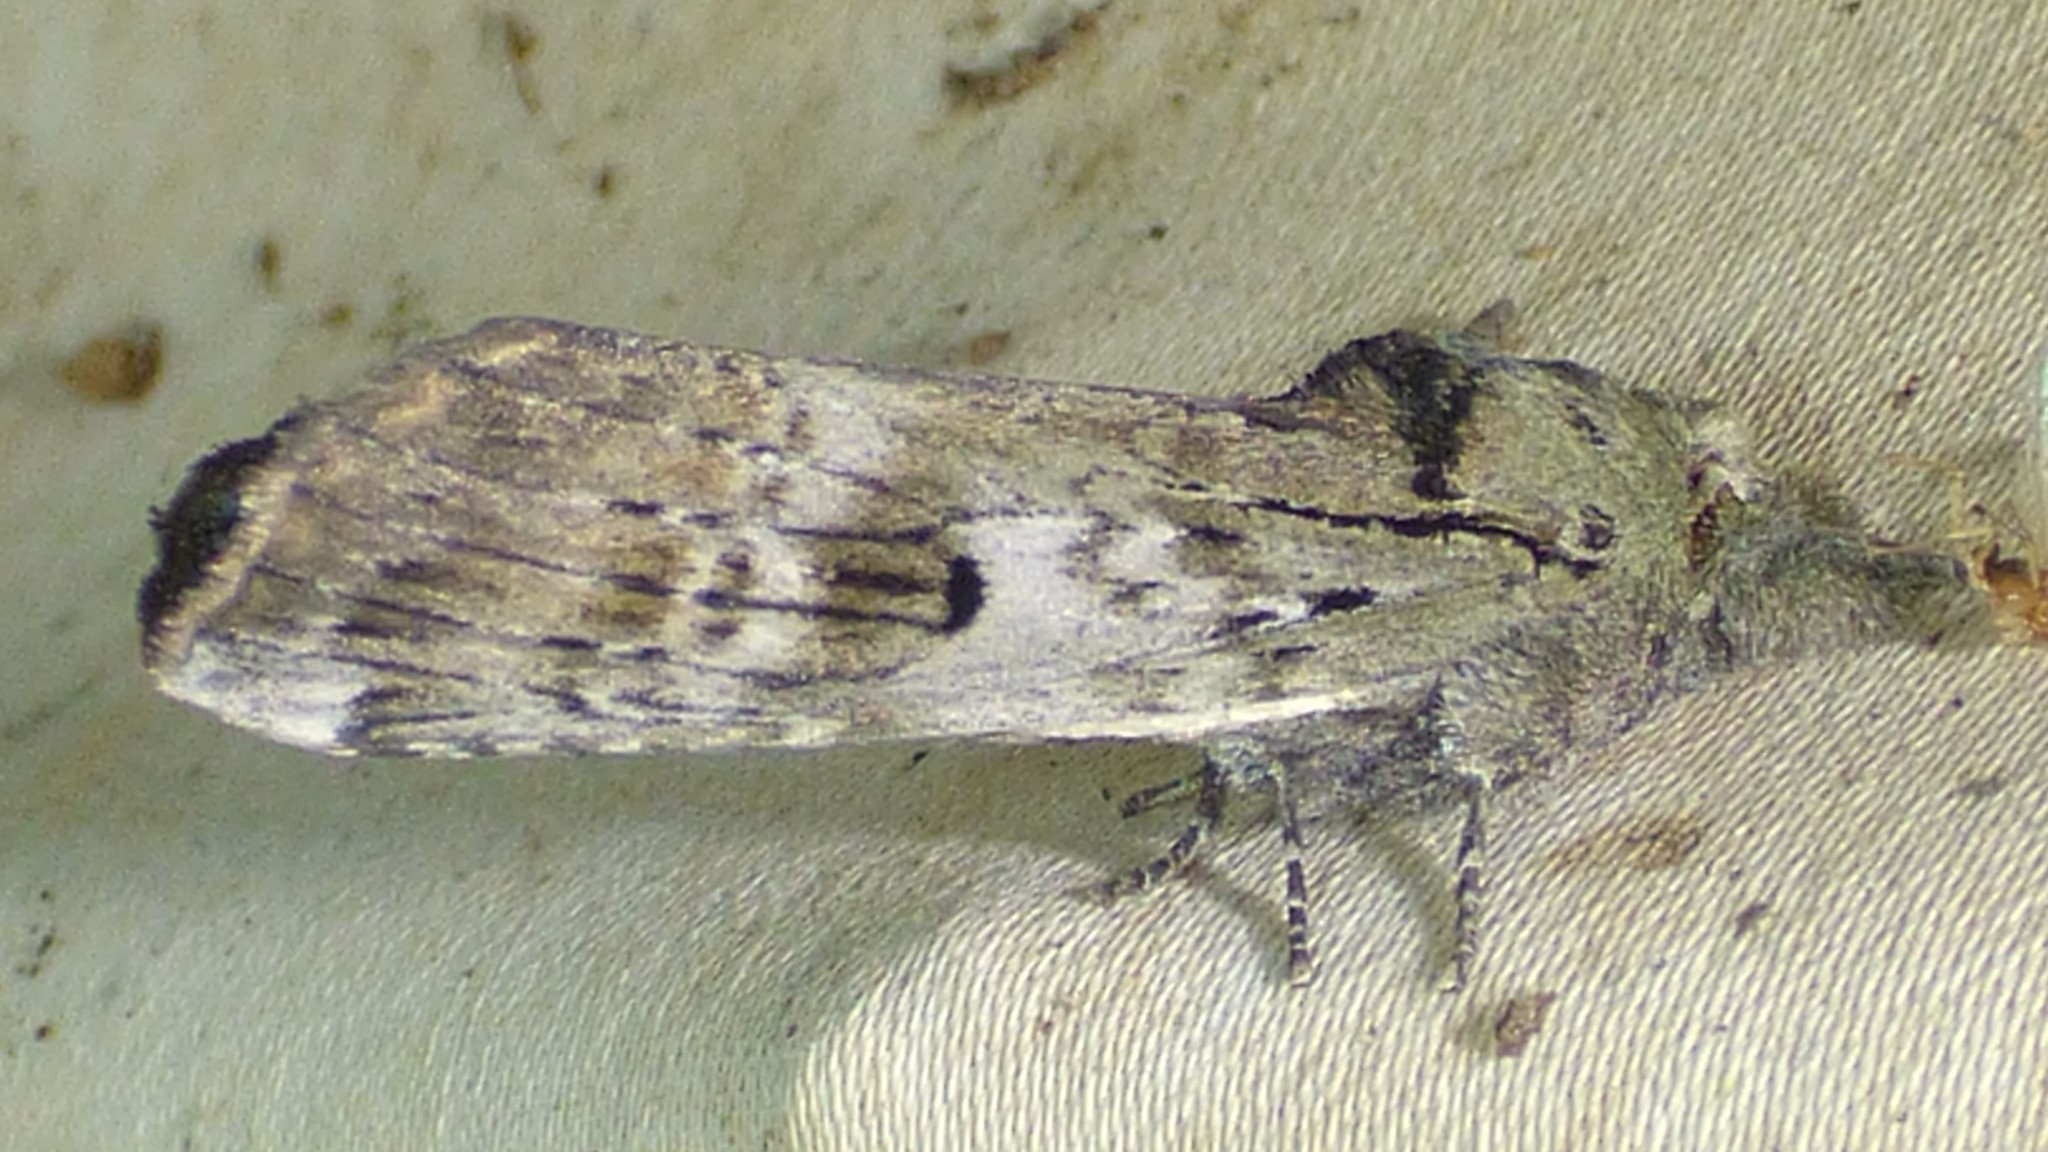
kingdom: Animalia
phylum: Arthropoda
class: Insecta
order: Lepidoptera
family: Notodontidae
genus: Schizura
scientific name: Schizura
